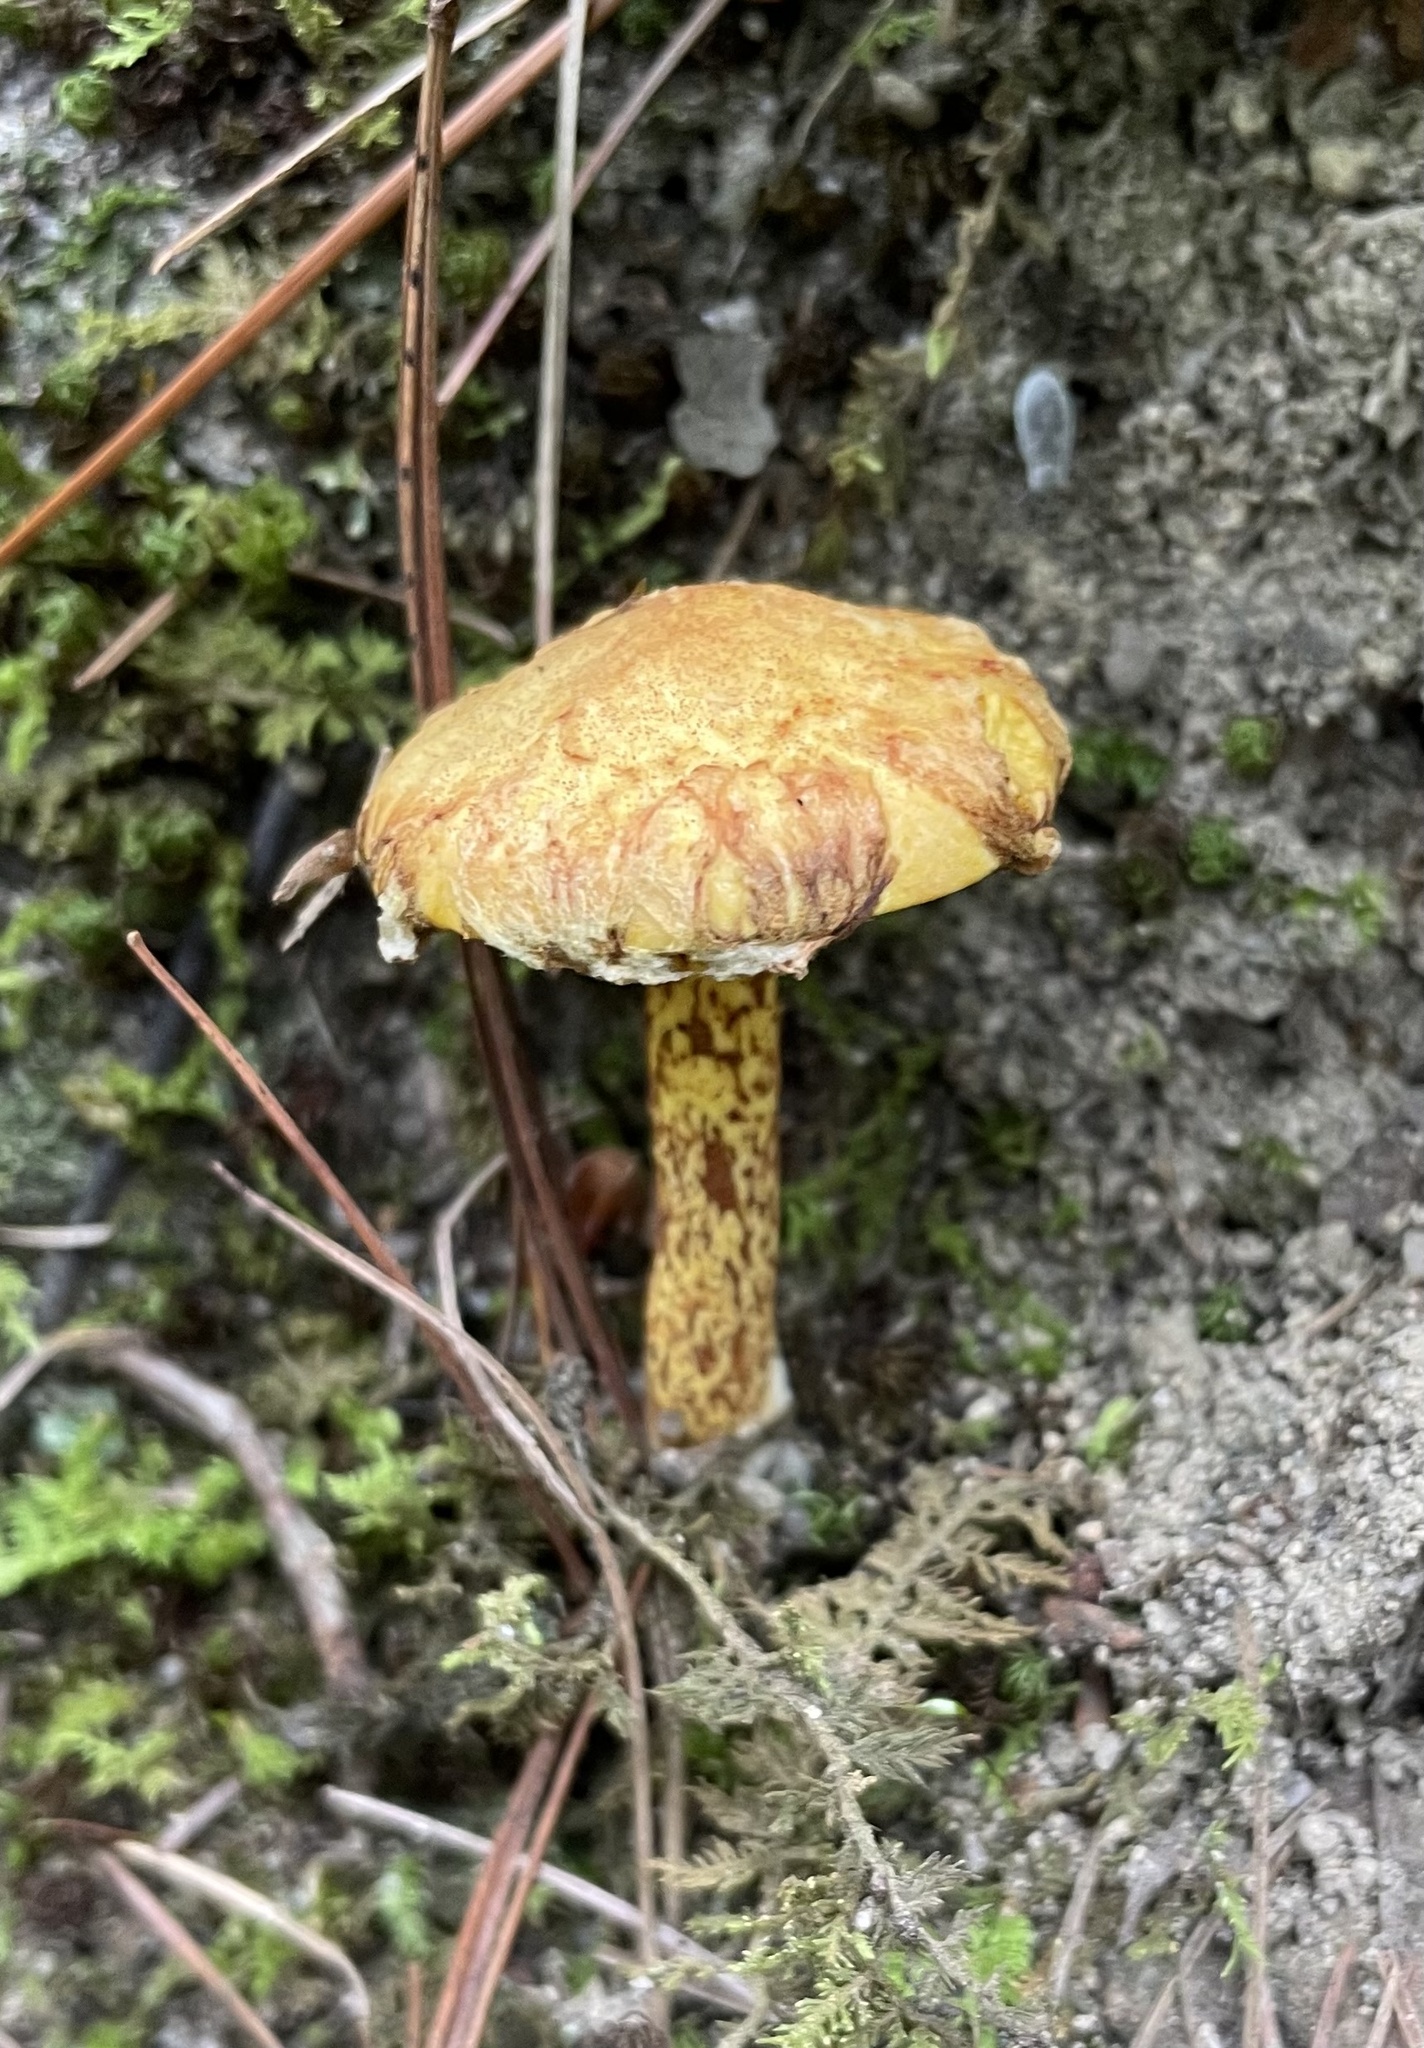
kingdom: Fungi
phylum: Basidiomycota
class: Agaricomycetes
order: Boletales
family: Suillaceae
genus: Suillus
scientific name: Suillus americanus
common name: Chicken fat mushroom
